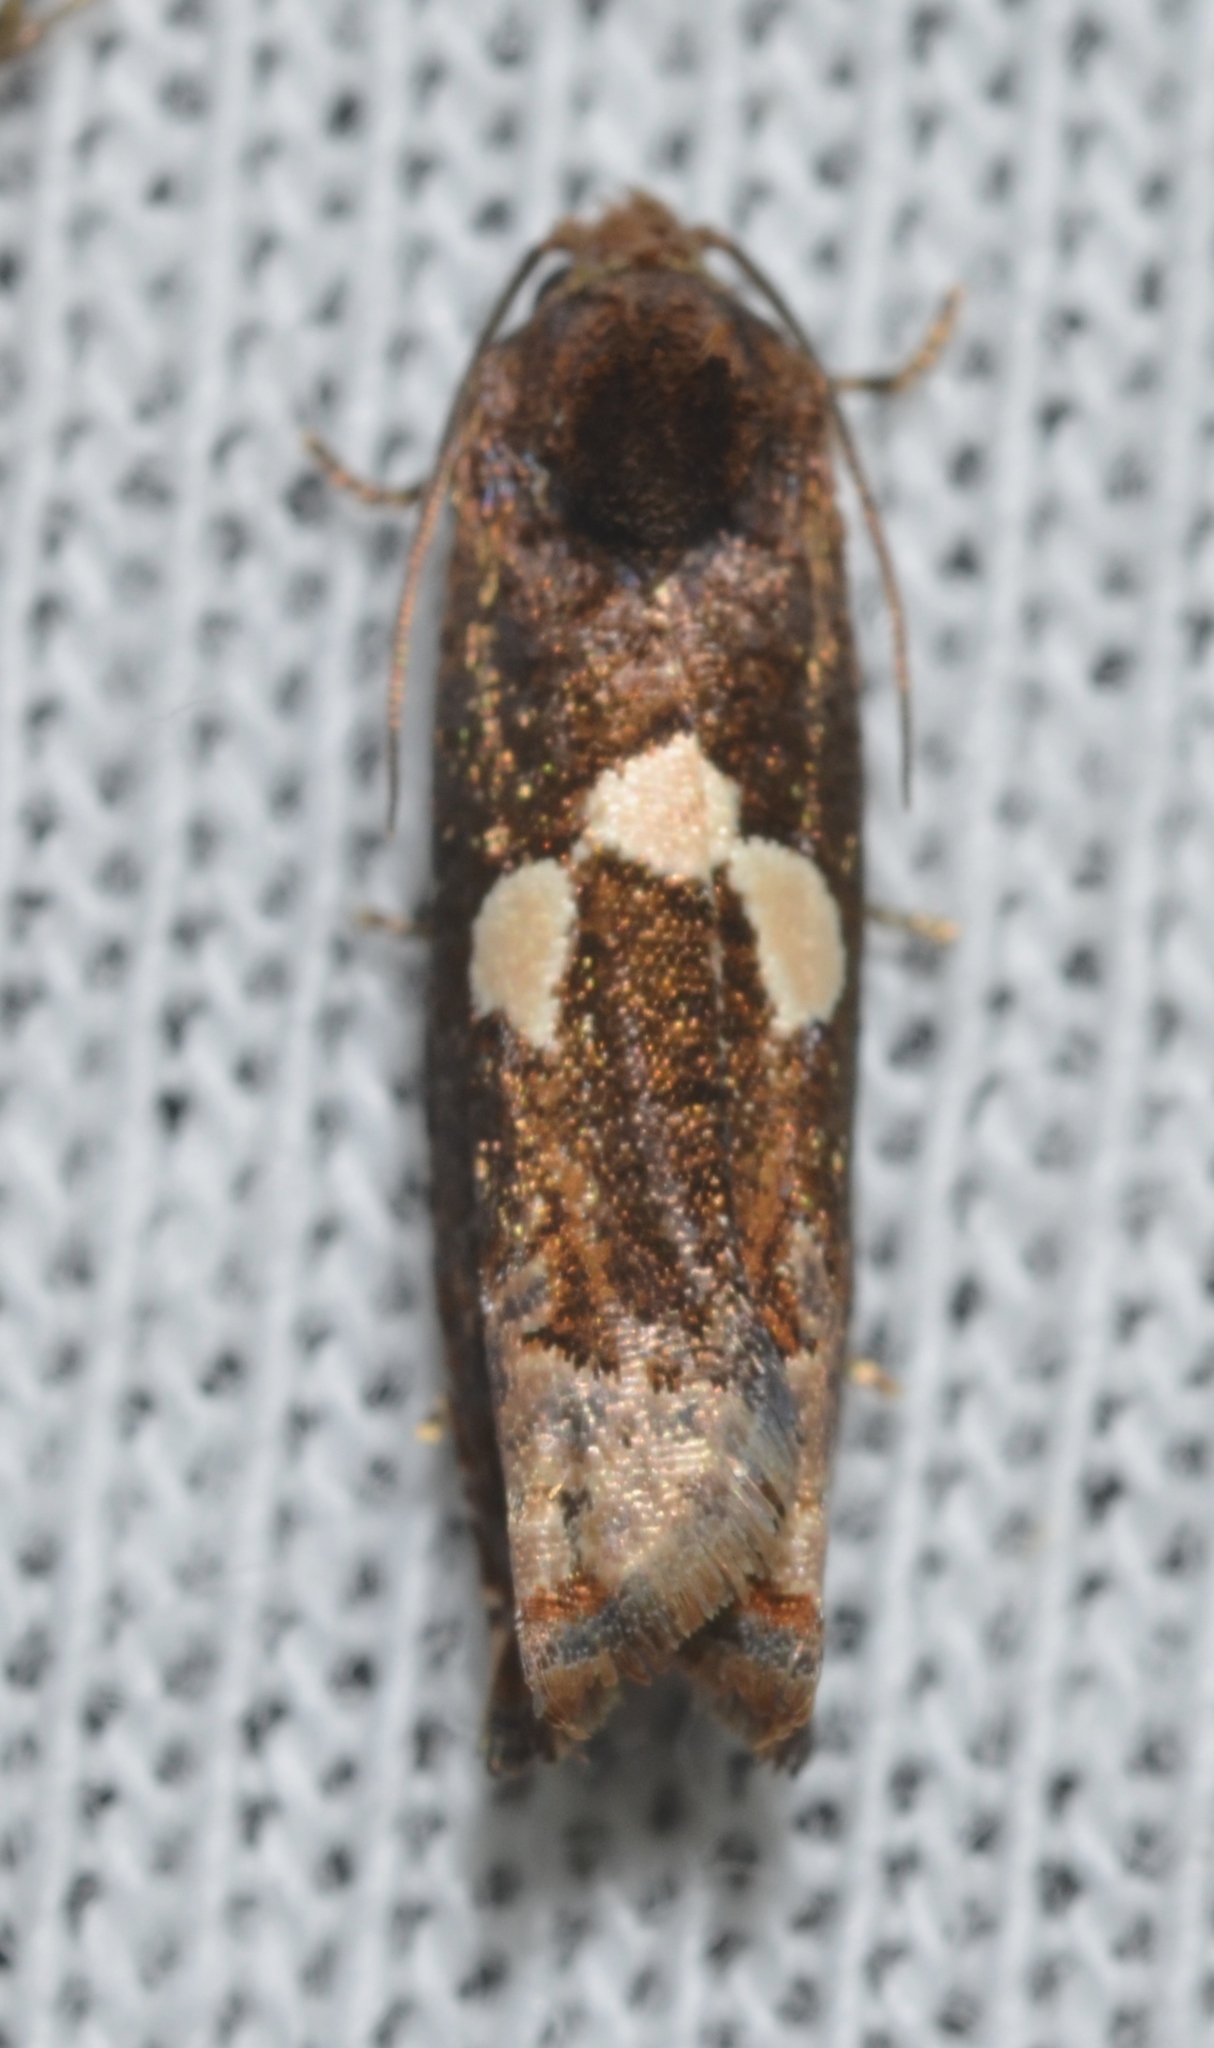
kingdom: Animalia
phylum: Arthropoda
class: Insecta
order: Lepidoptera
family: Tortricidae
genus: Epiblema
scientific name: Epiblema otiosana
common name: Bidens borer moth
